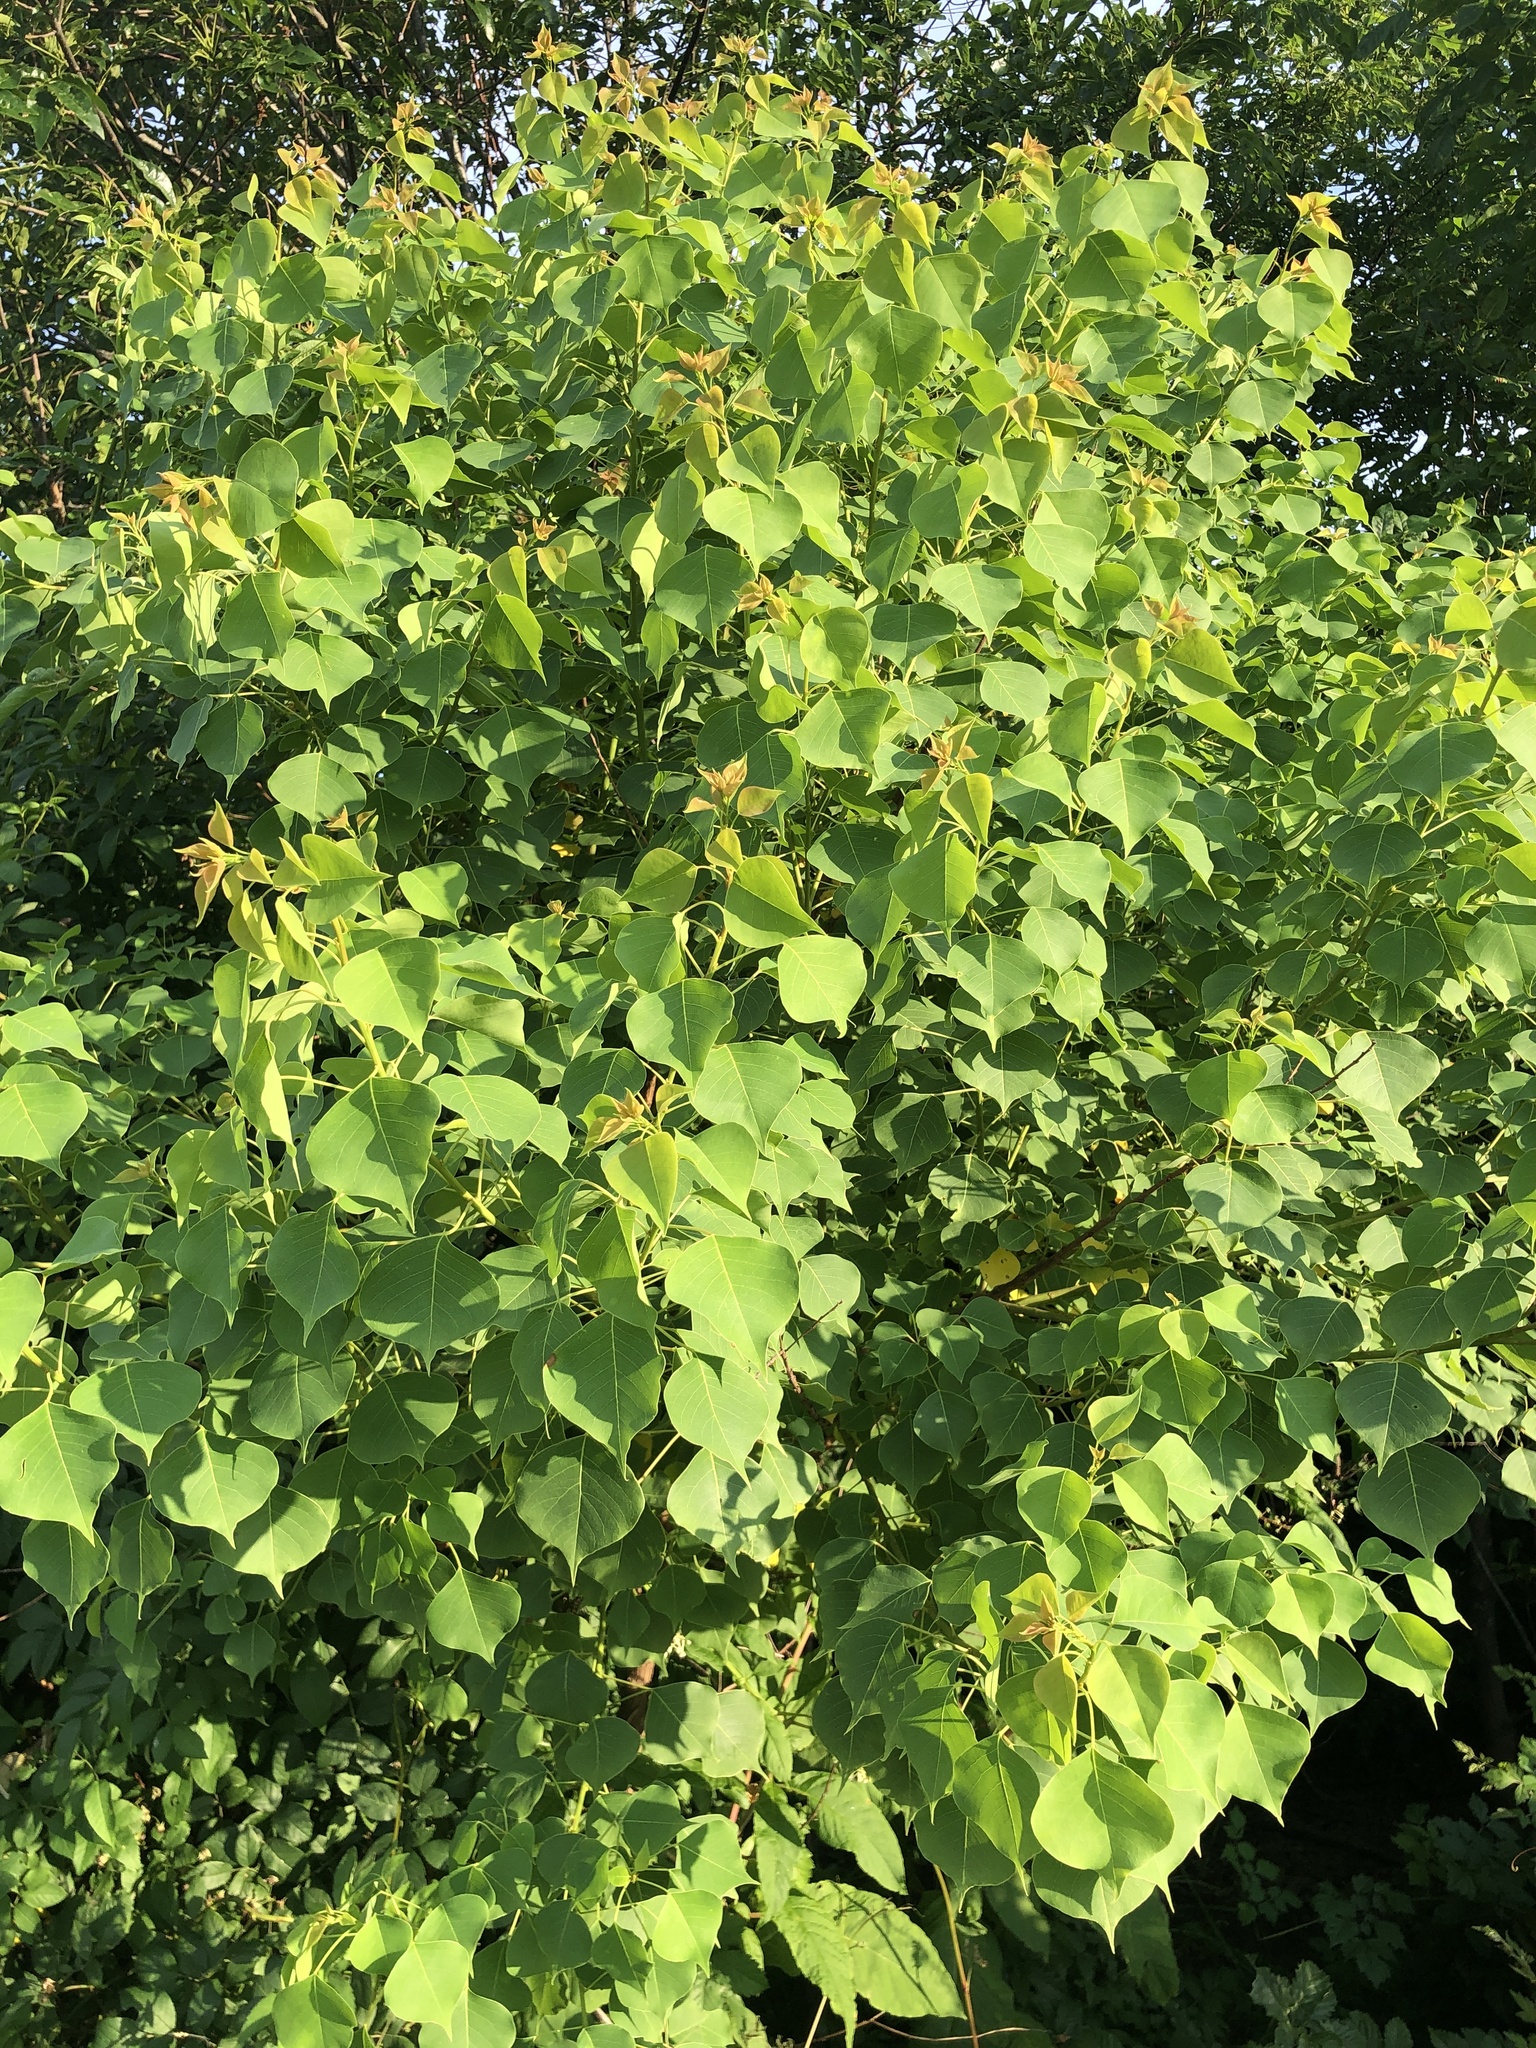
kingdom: Plantae
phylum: Tracheophyta
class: Magnoliopsida
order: Malpighiales
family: Euphorbiaceae
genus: Triadica
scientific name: Triadica sebifera
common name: Chinese tallow
